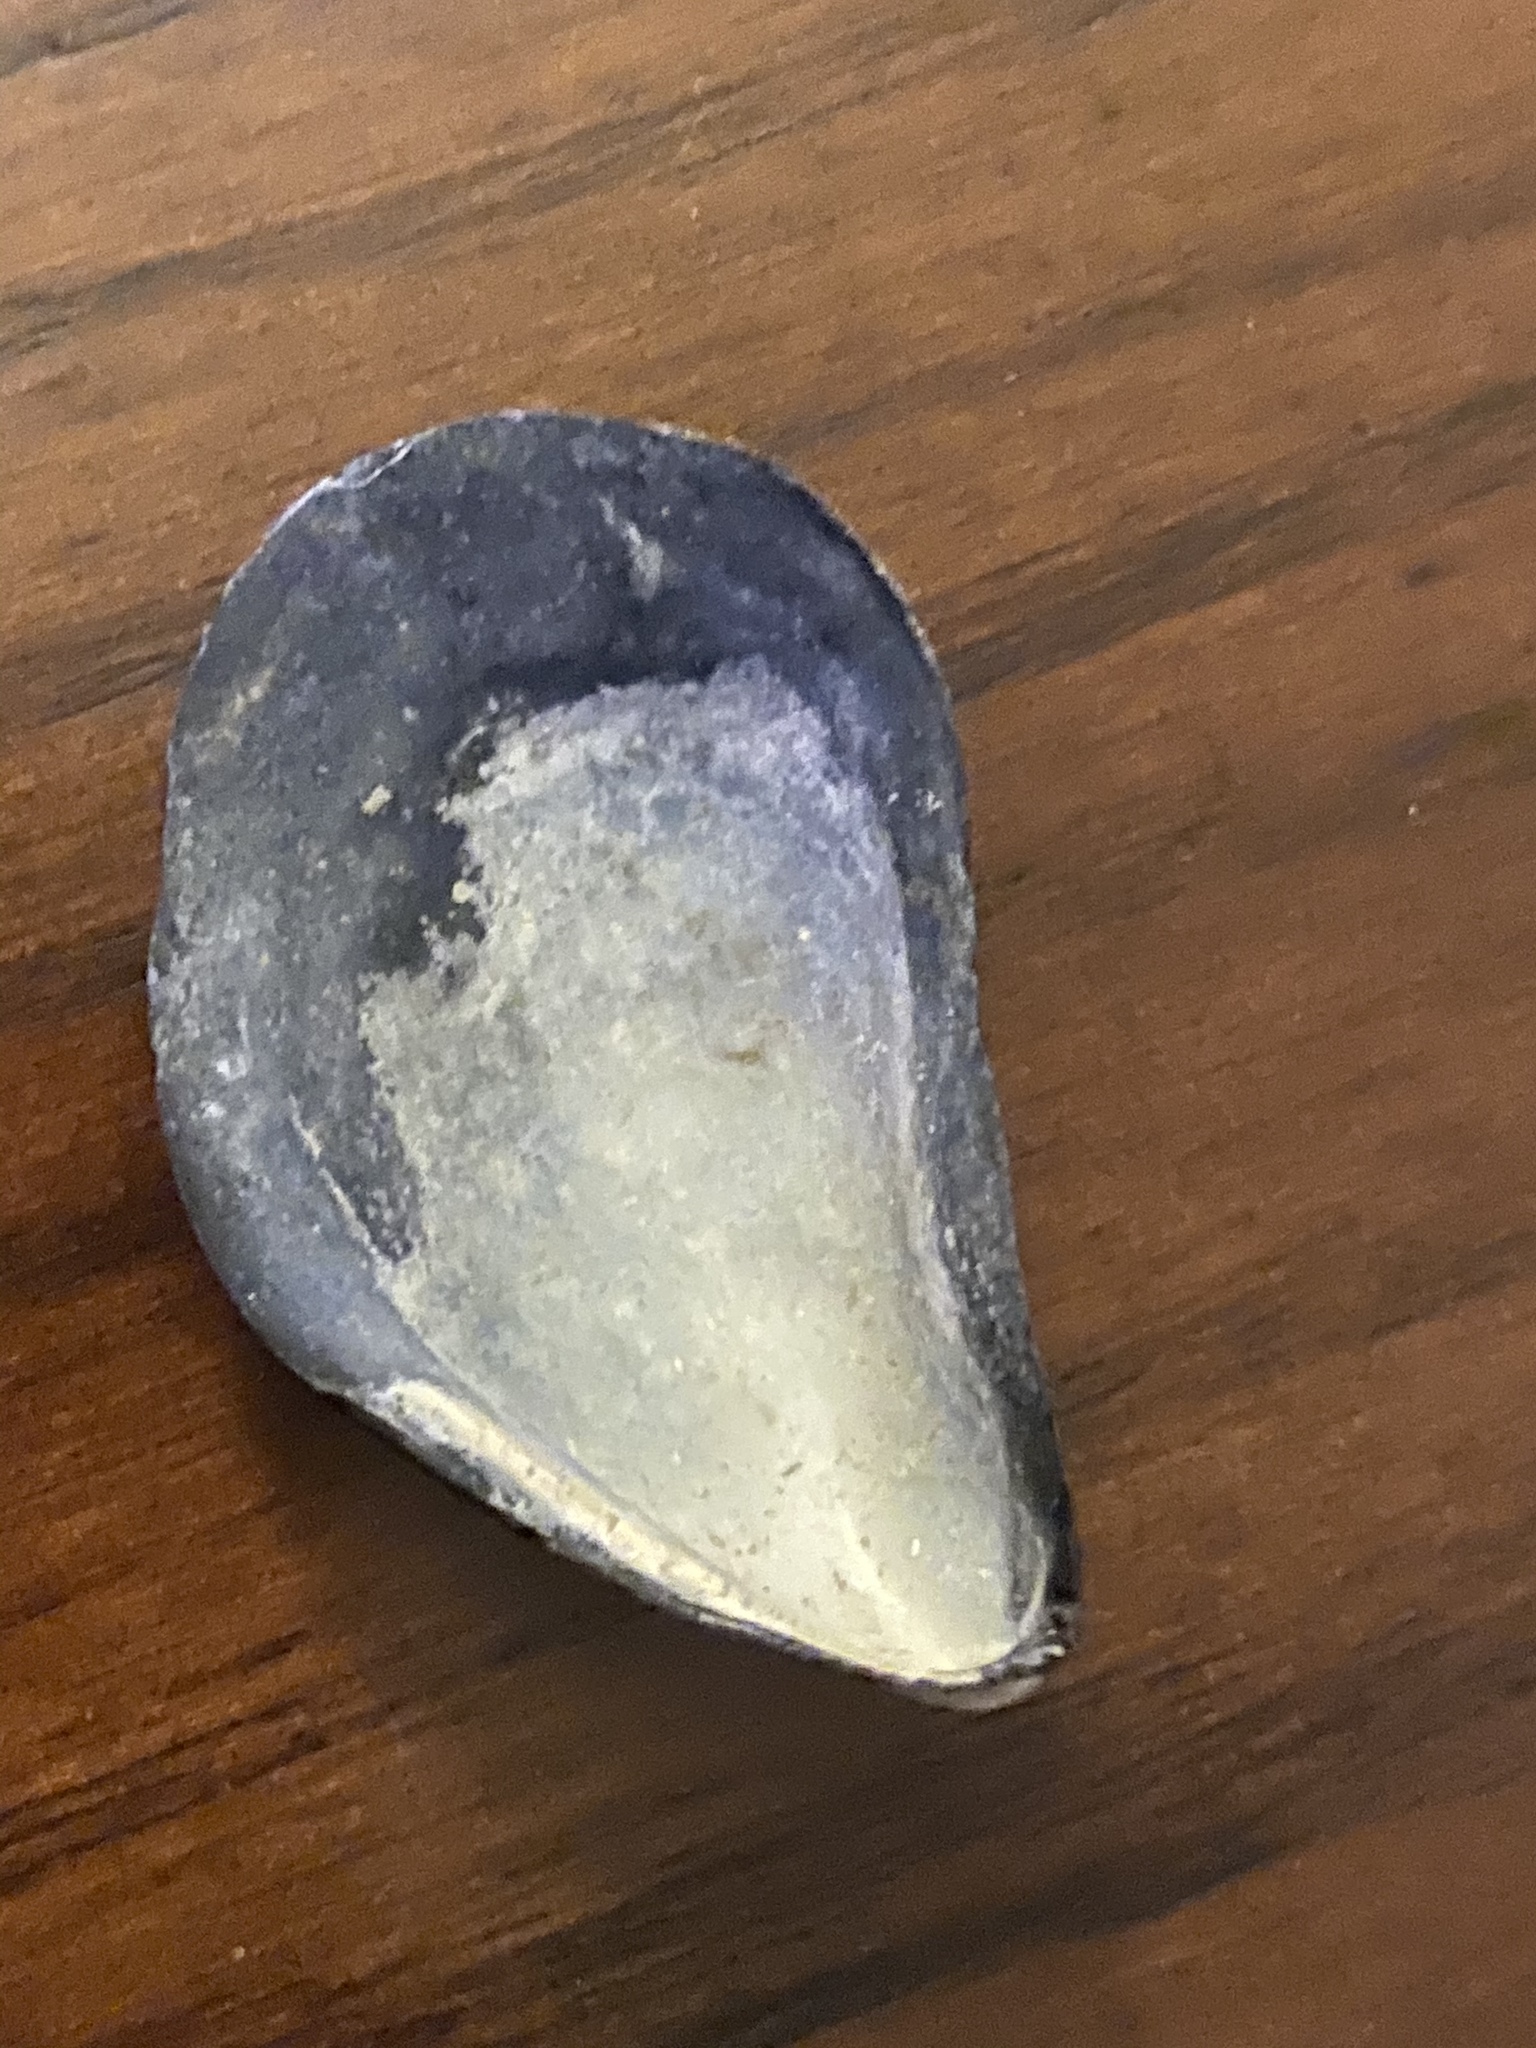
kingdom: Animalia
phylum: Mollusca
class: Bivalvia
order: Mytilida
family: Mytilidae
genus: Mytilus
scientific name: Mytilus edulis
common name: Blue mussel
